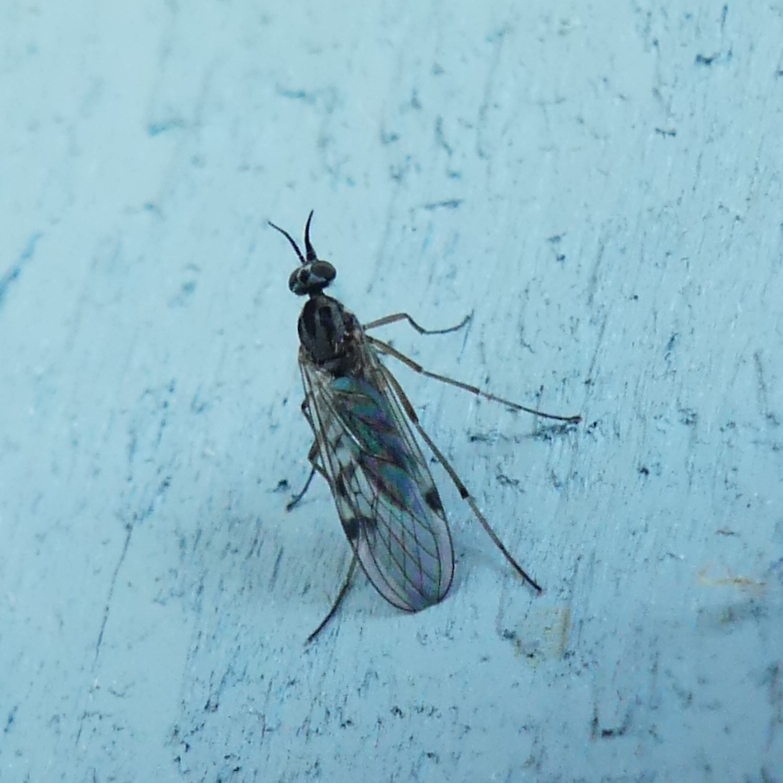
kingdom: Animalia
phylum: Arthropoda
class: Insecta
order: Diptera
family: Anisopodidae
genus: Sylvicola
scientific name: Sylvicola punctatus
